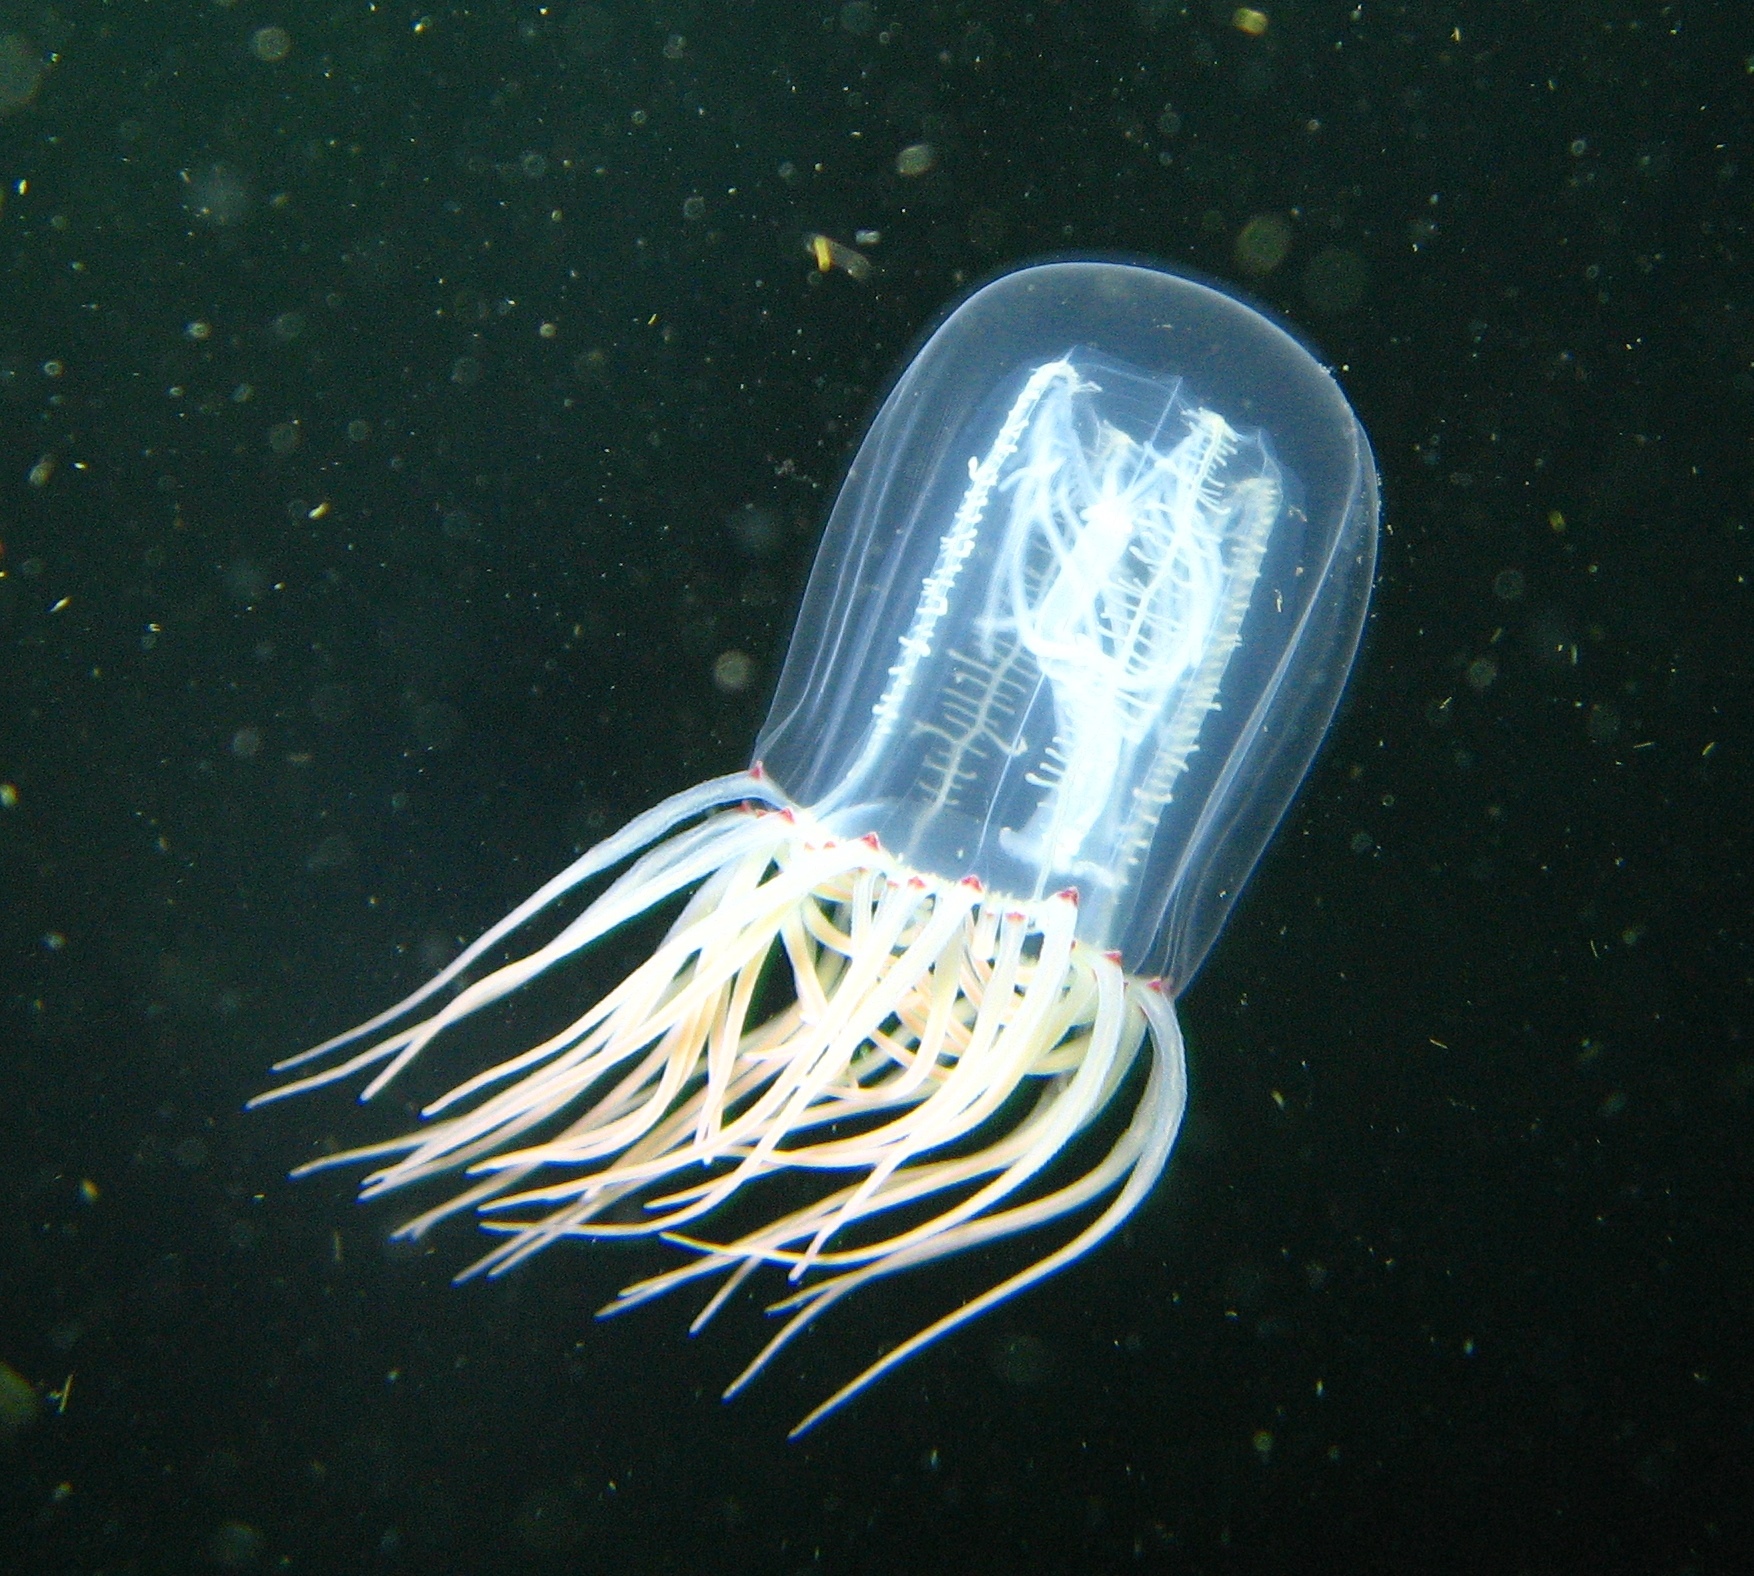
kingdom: Animalia
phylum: Cnidaria
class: Hydrozoa
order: Anthoathecata
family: Corynidae
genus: Polyorchis
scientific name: Polyorchis penicillatus
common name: Penicillate jellyfish
